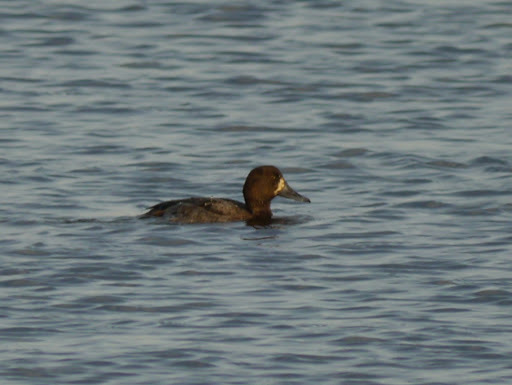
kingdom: Animalia
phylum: Chordata
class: Aves
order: Anseriformes
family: Anatidae
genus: Aythya
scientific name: Aythya marila
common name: Greater scaup
